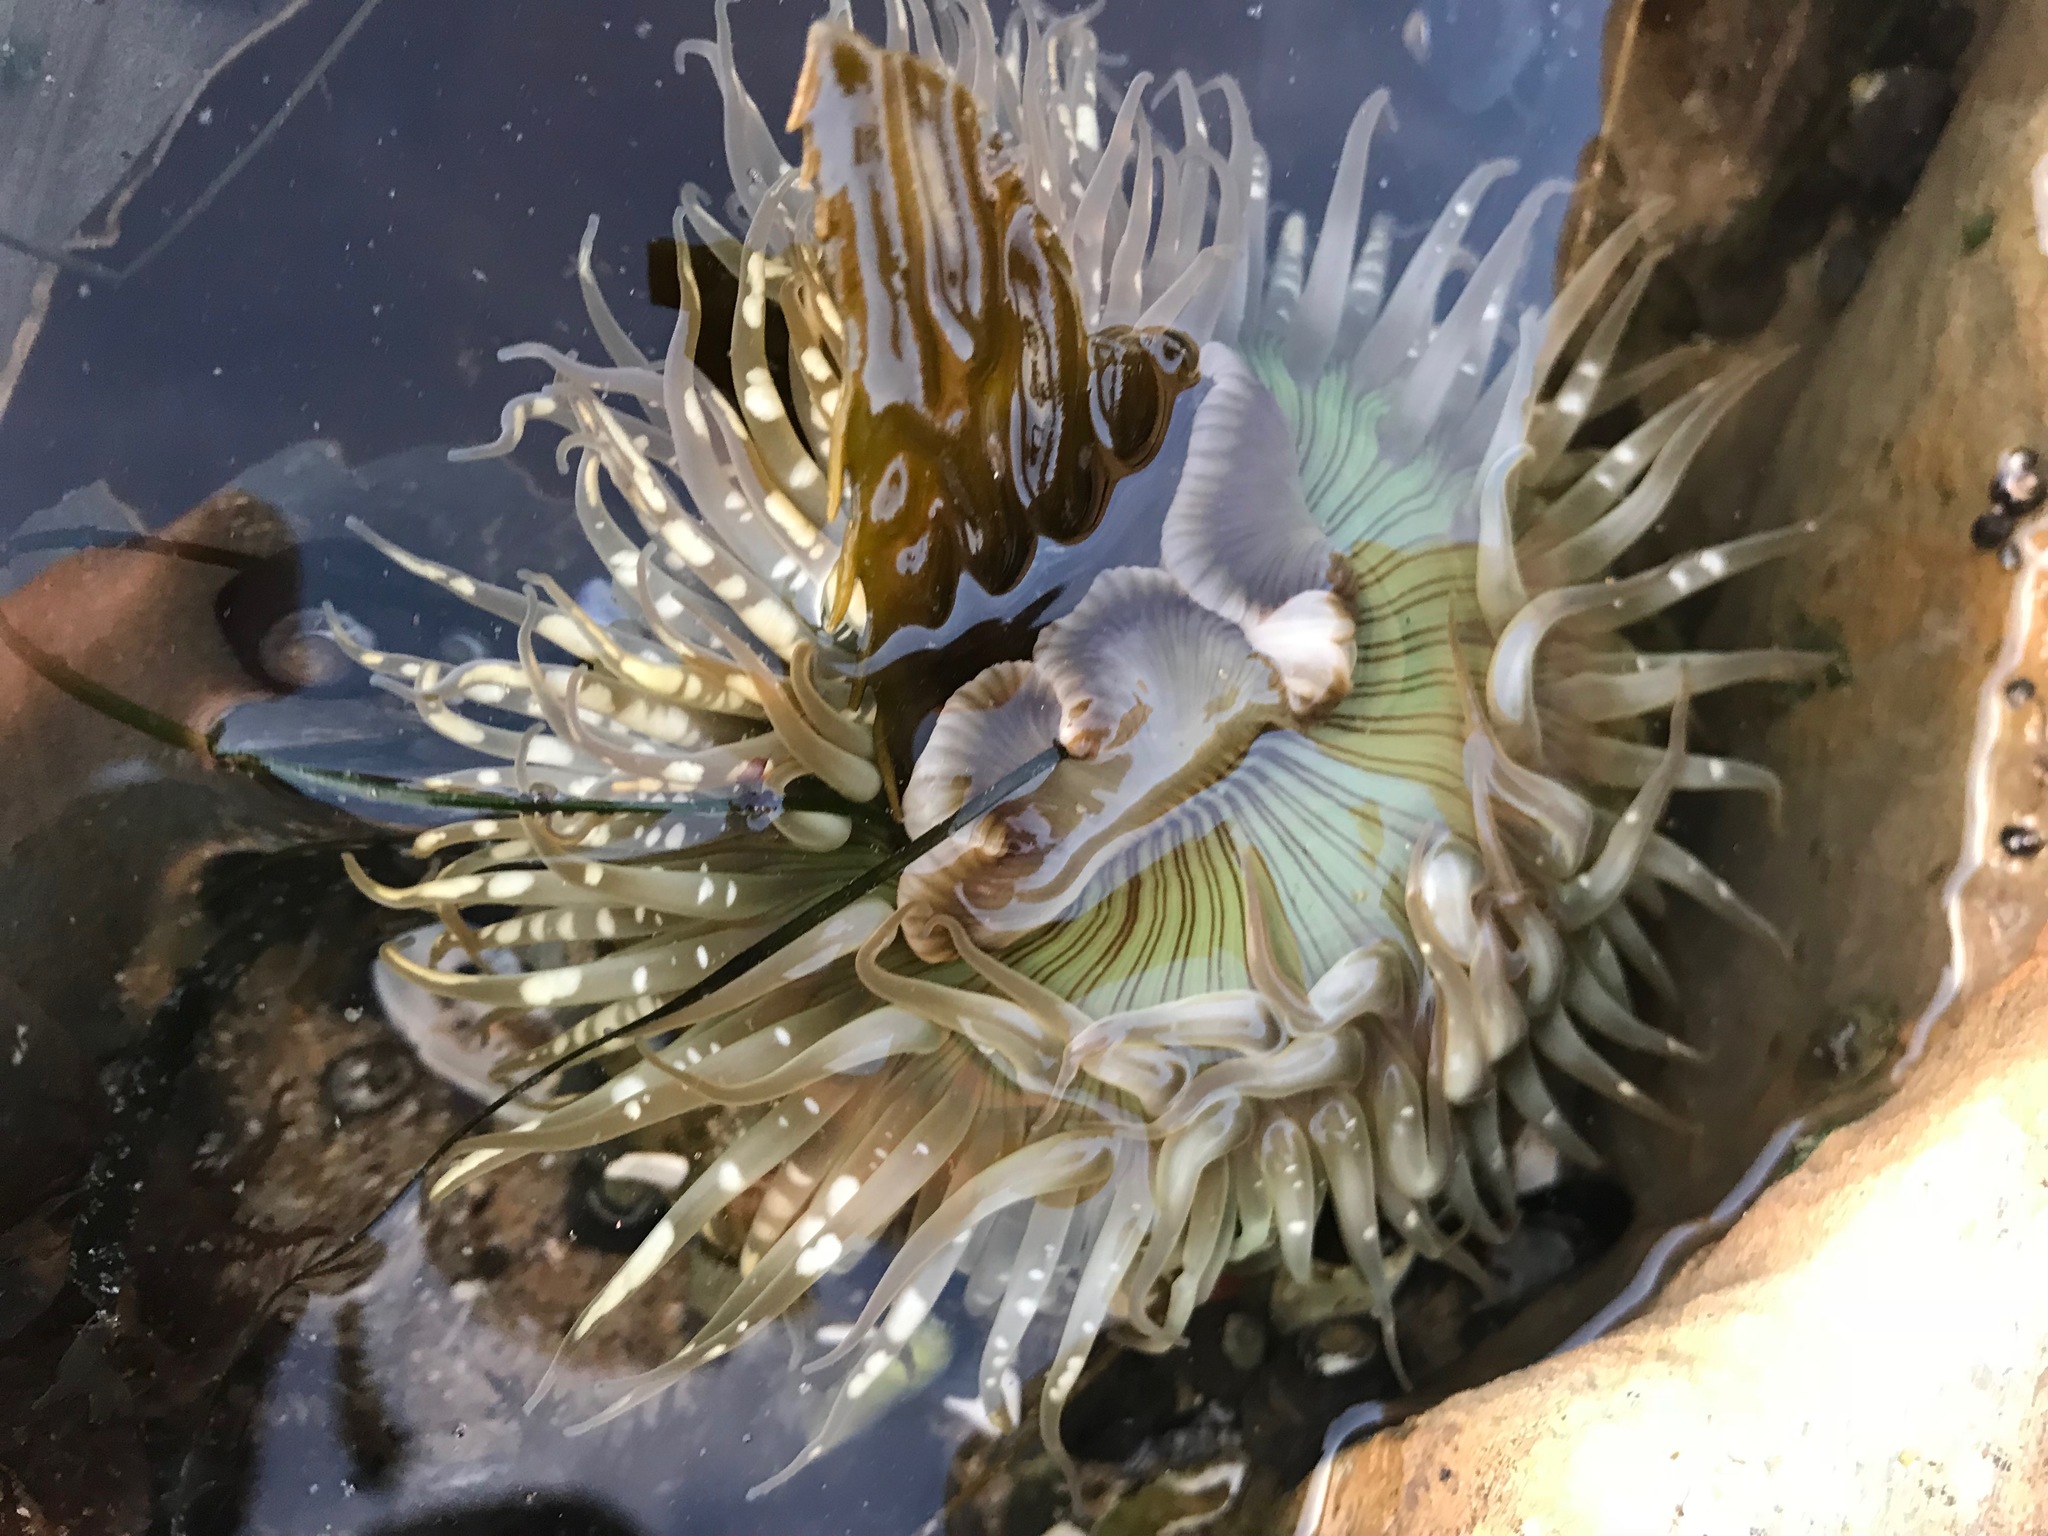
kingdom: Animalia
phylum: Cnidaria
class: Anthozoa
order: Actiniaria
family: Actiniidae
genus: Anthopleura
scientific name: Anthopleura sola
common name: Sun anemone
